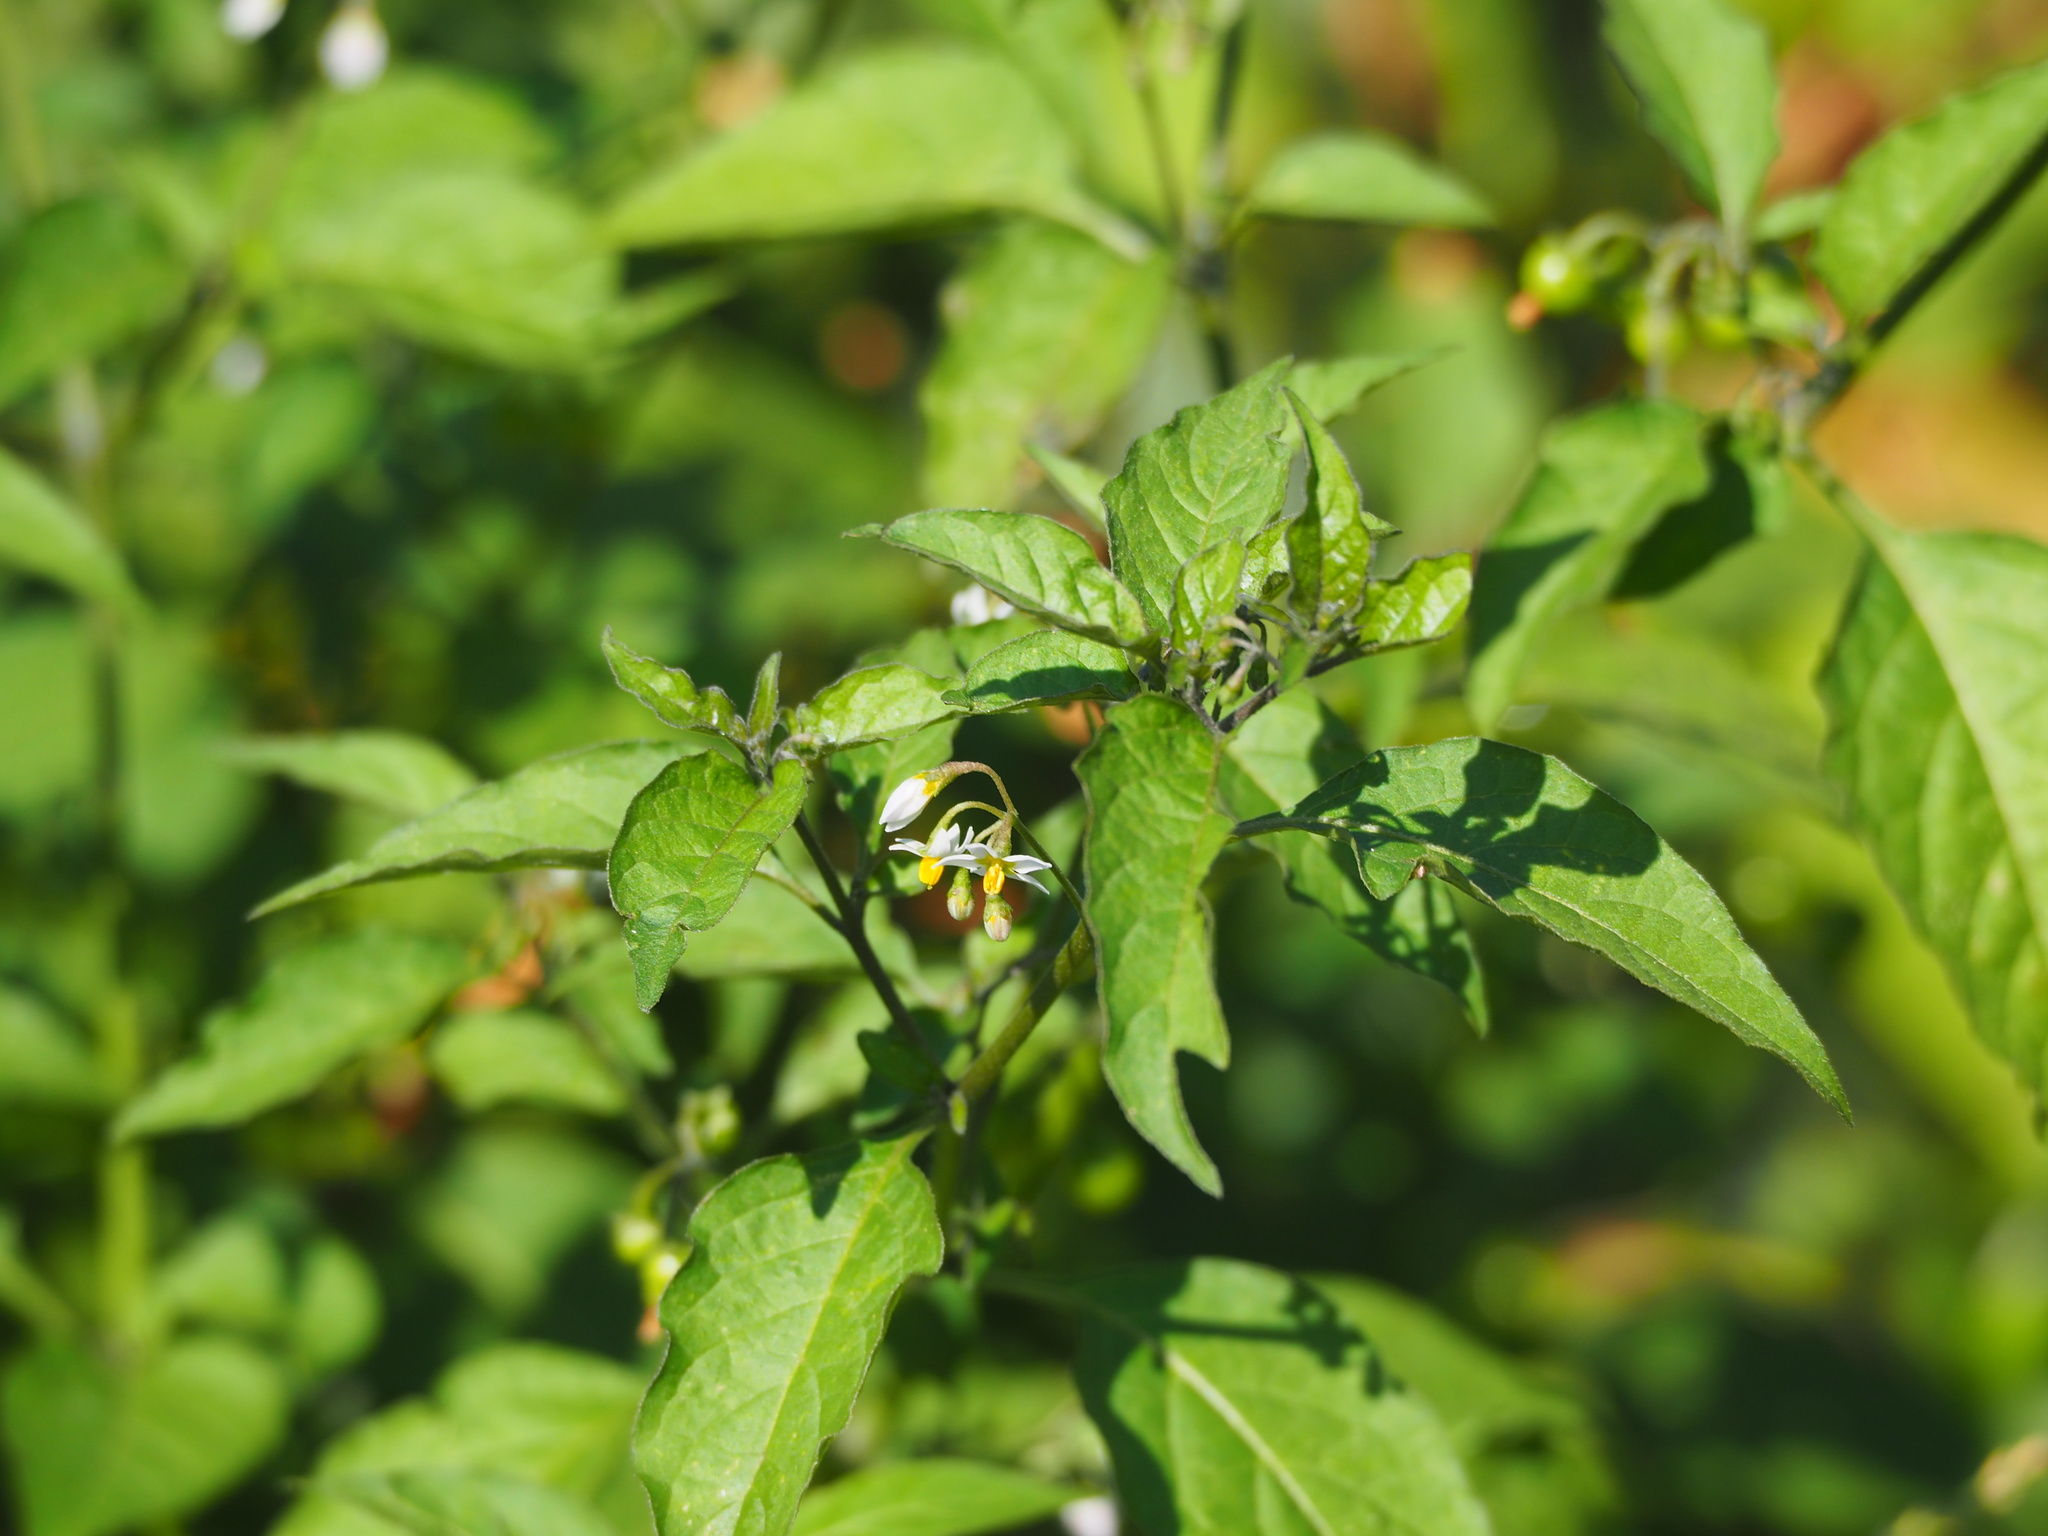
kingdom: Plantae
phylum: Tracheophyta
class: Magnoliopsida
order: Solanales
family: Solanaceae
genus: Solanum
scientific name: Solanum americanum
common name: American black nightshade
